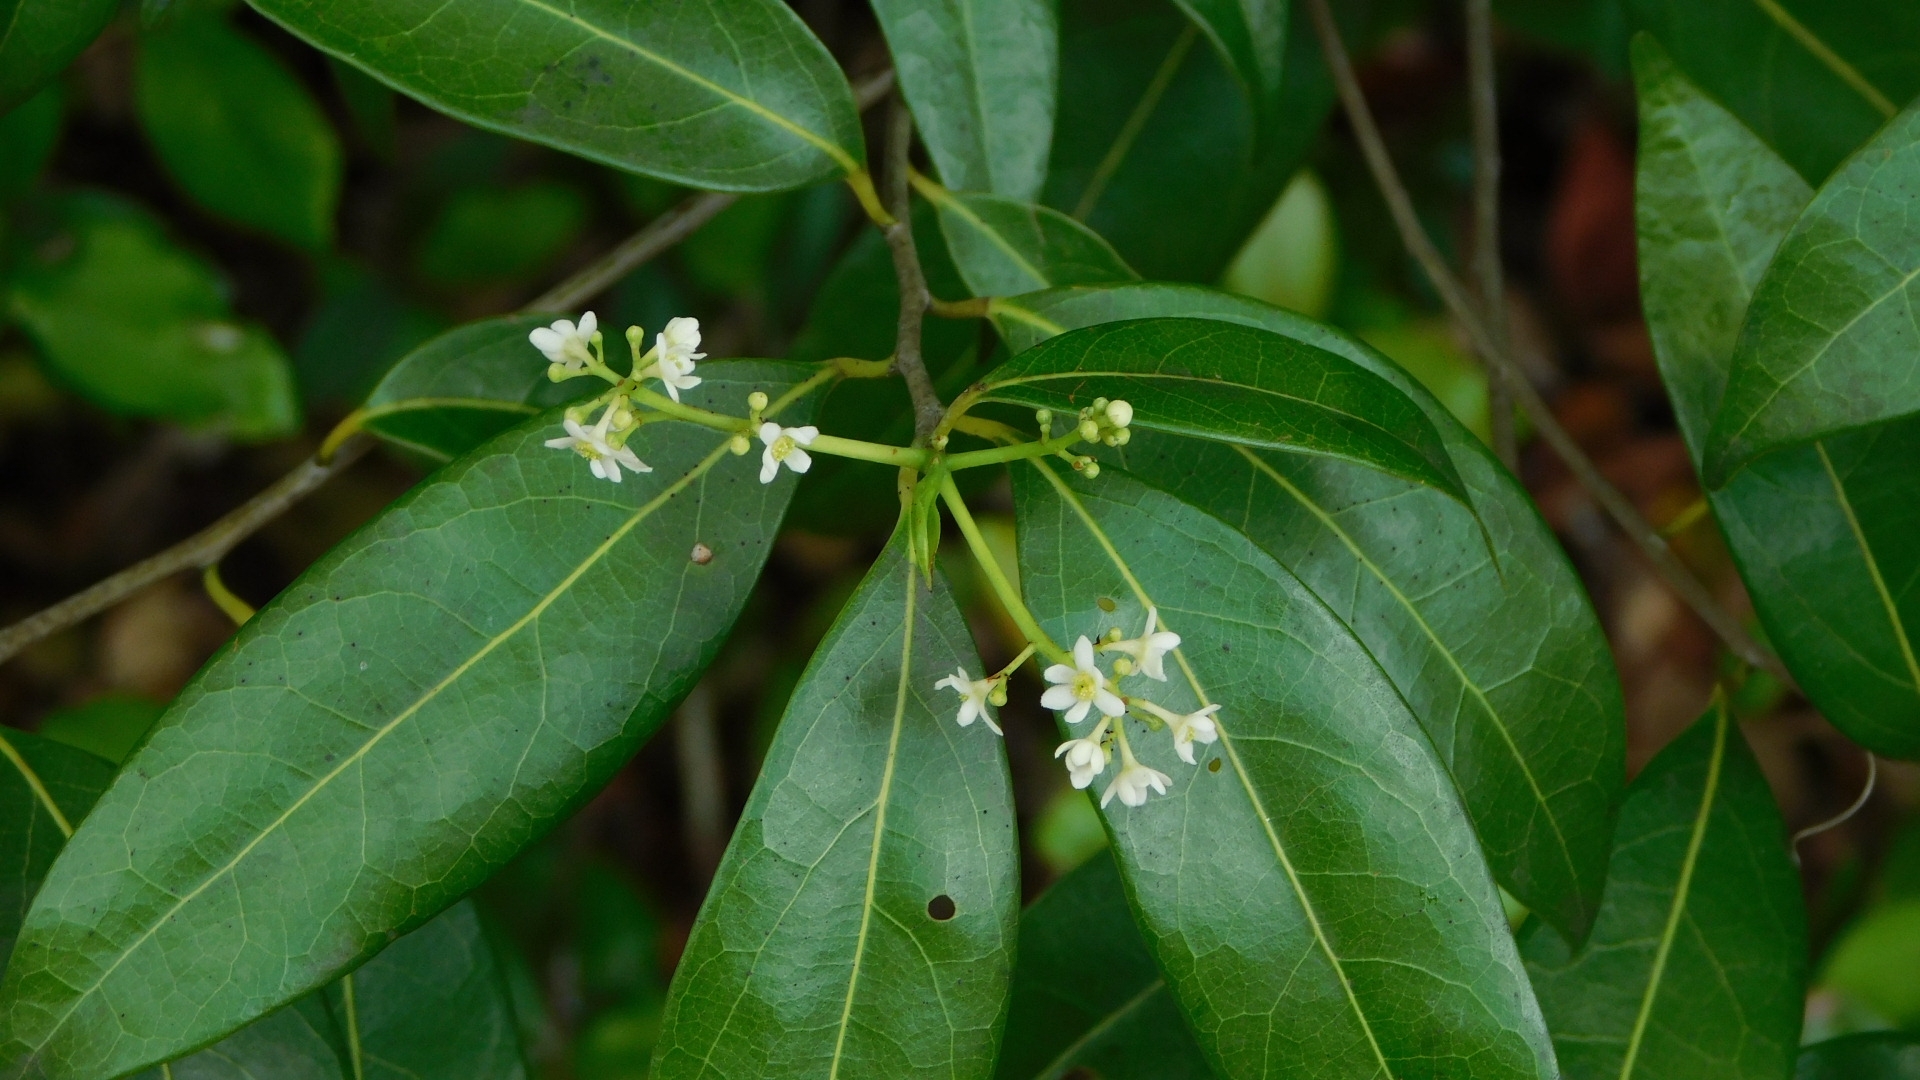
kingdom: Plantae
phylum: Tracheophyta
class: Magnoliopsida
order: Laurales
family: Lauraceae
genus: Damburneya
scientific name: Damburneya
